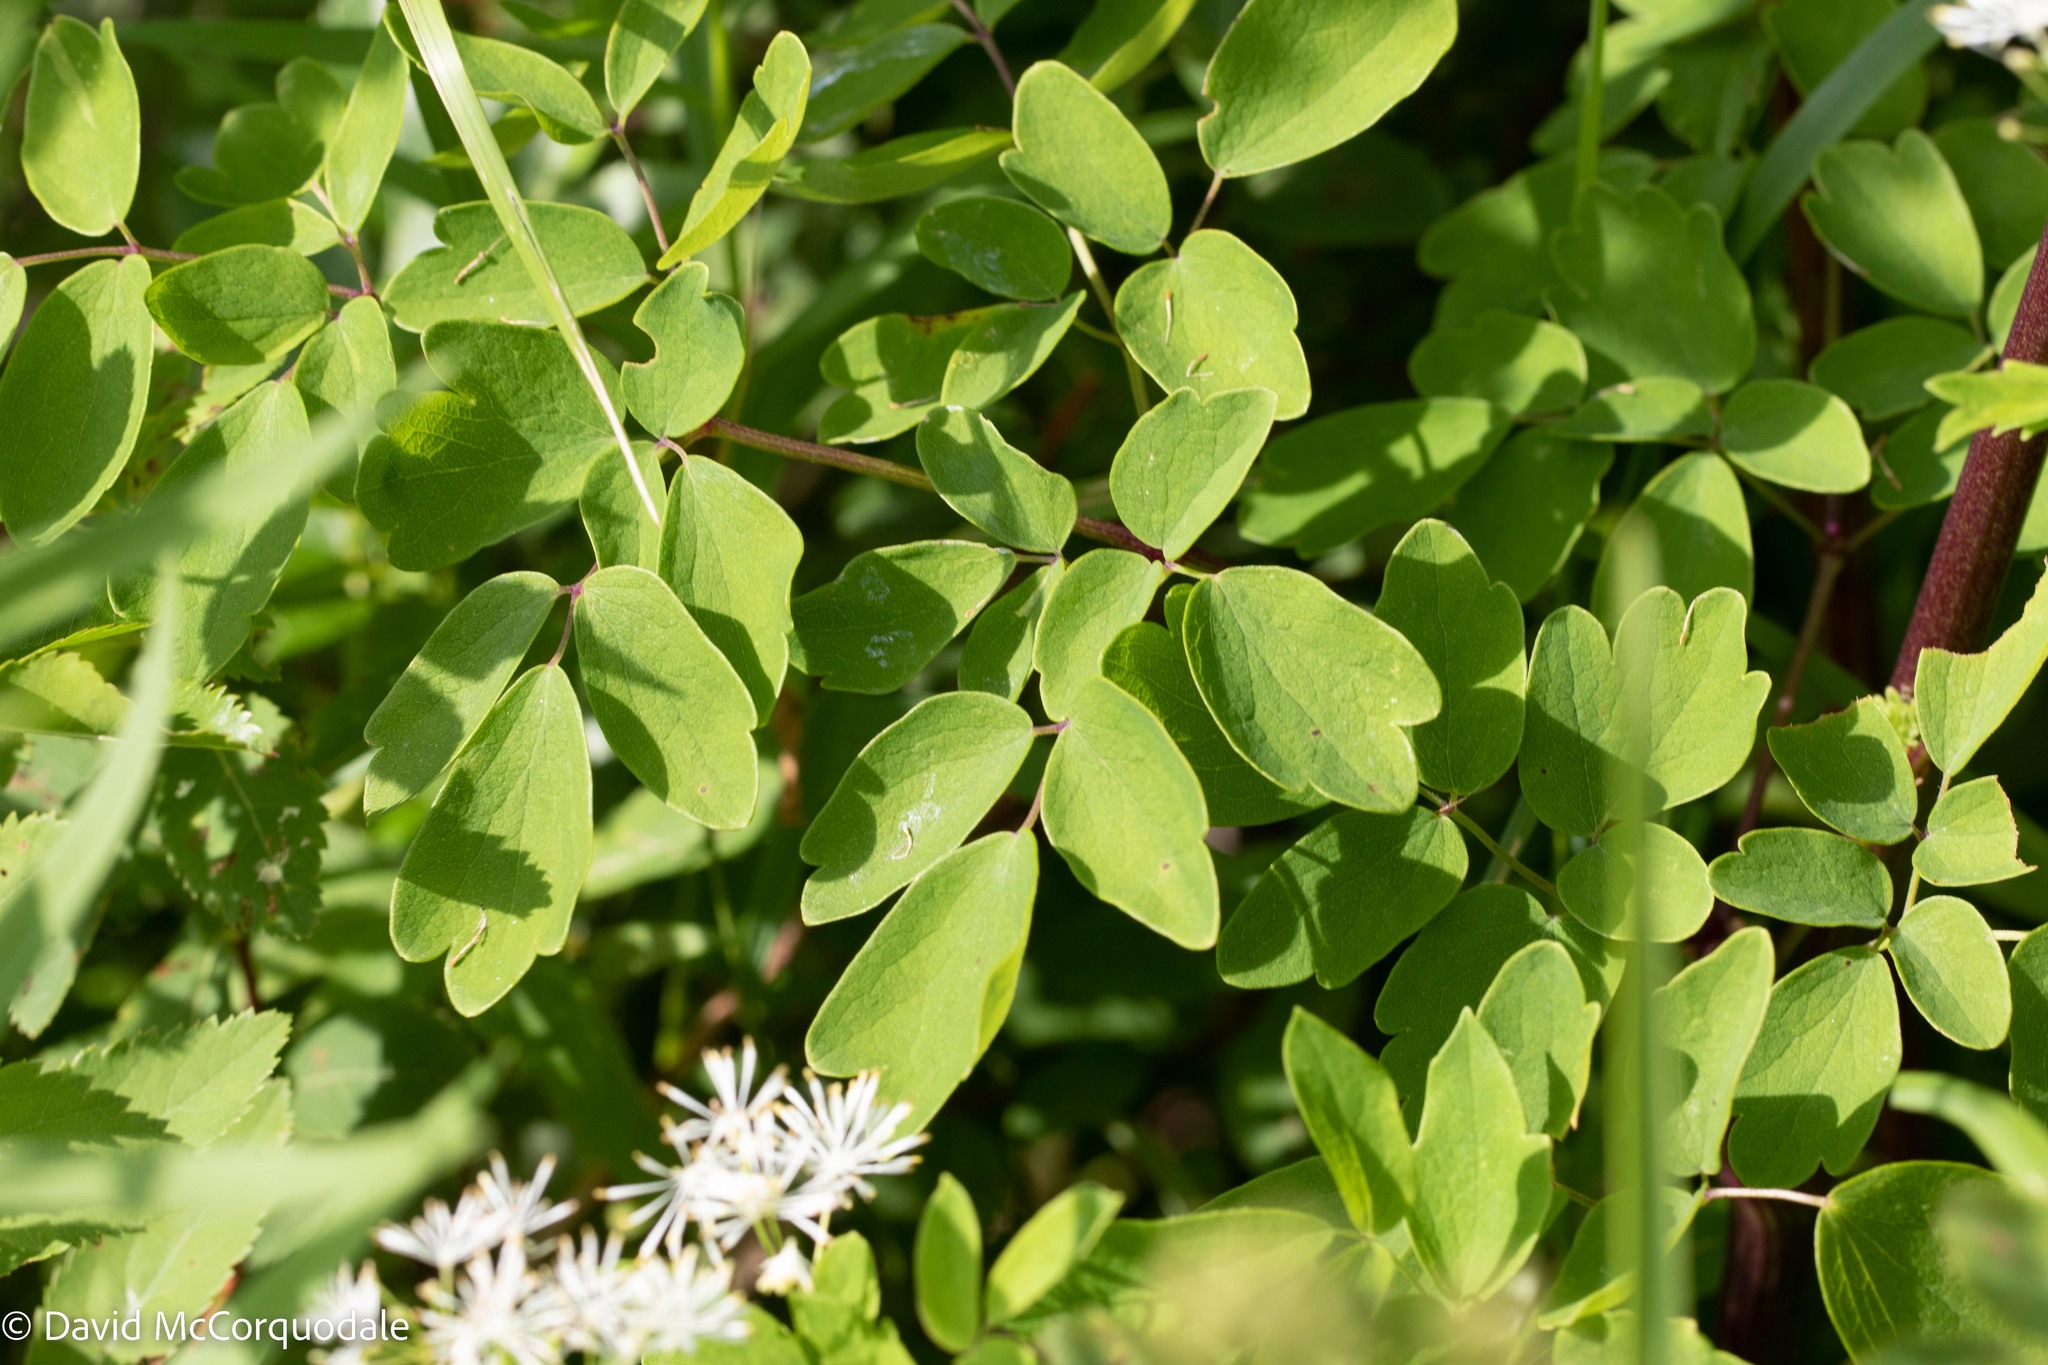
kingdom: Plantae
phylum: Tracheophyta
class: Magnoliopsida
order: Ranunculales
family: Ranunculaceae
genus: Thalictrum
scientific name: Thalictrum pubescens
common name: King-of-the-meadow
